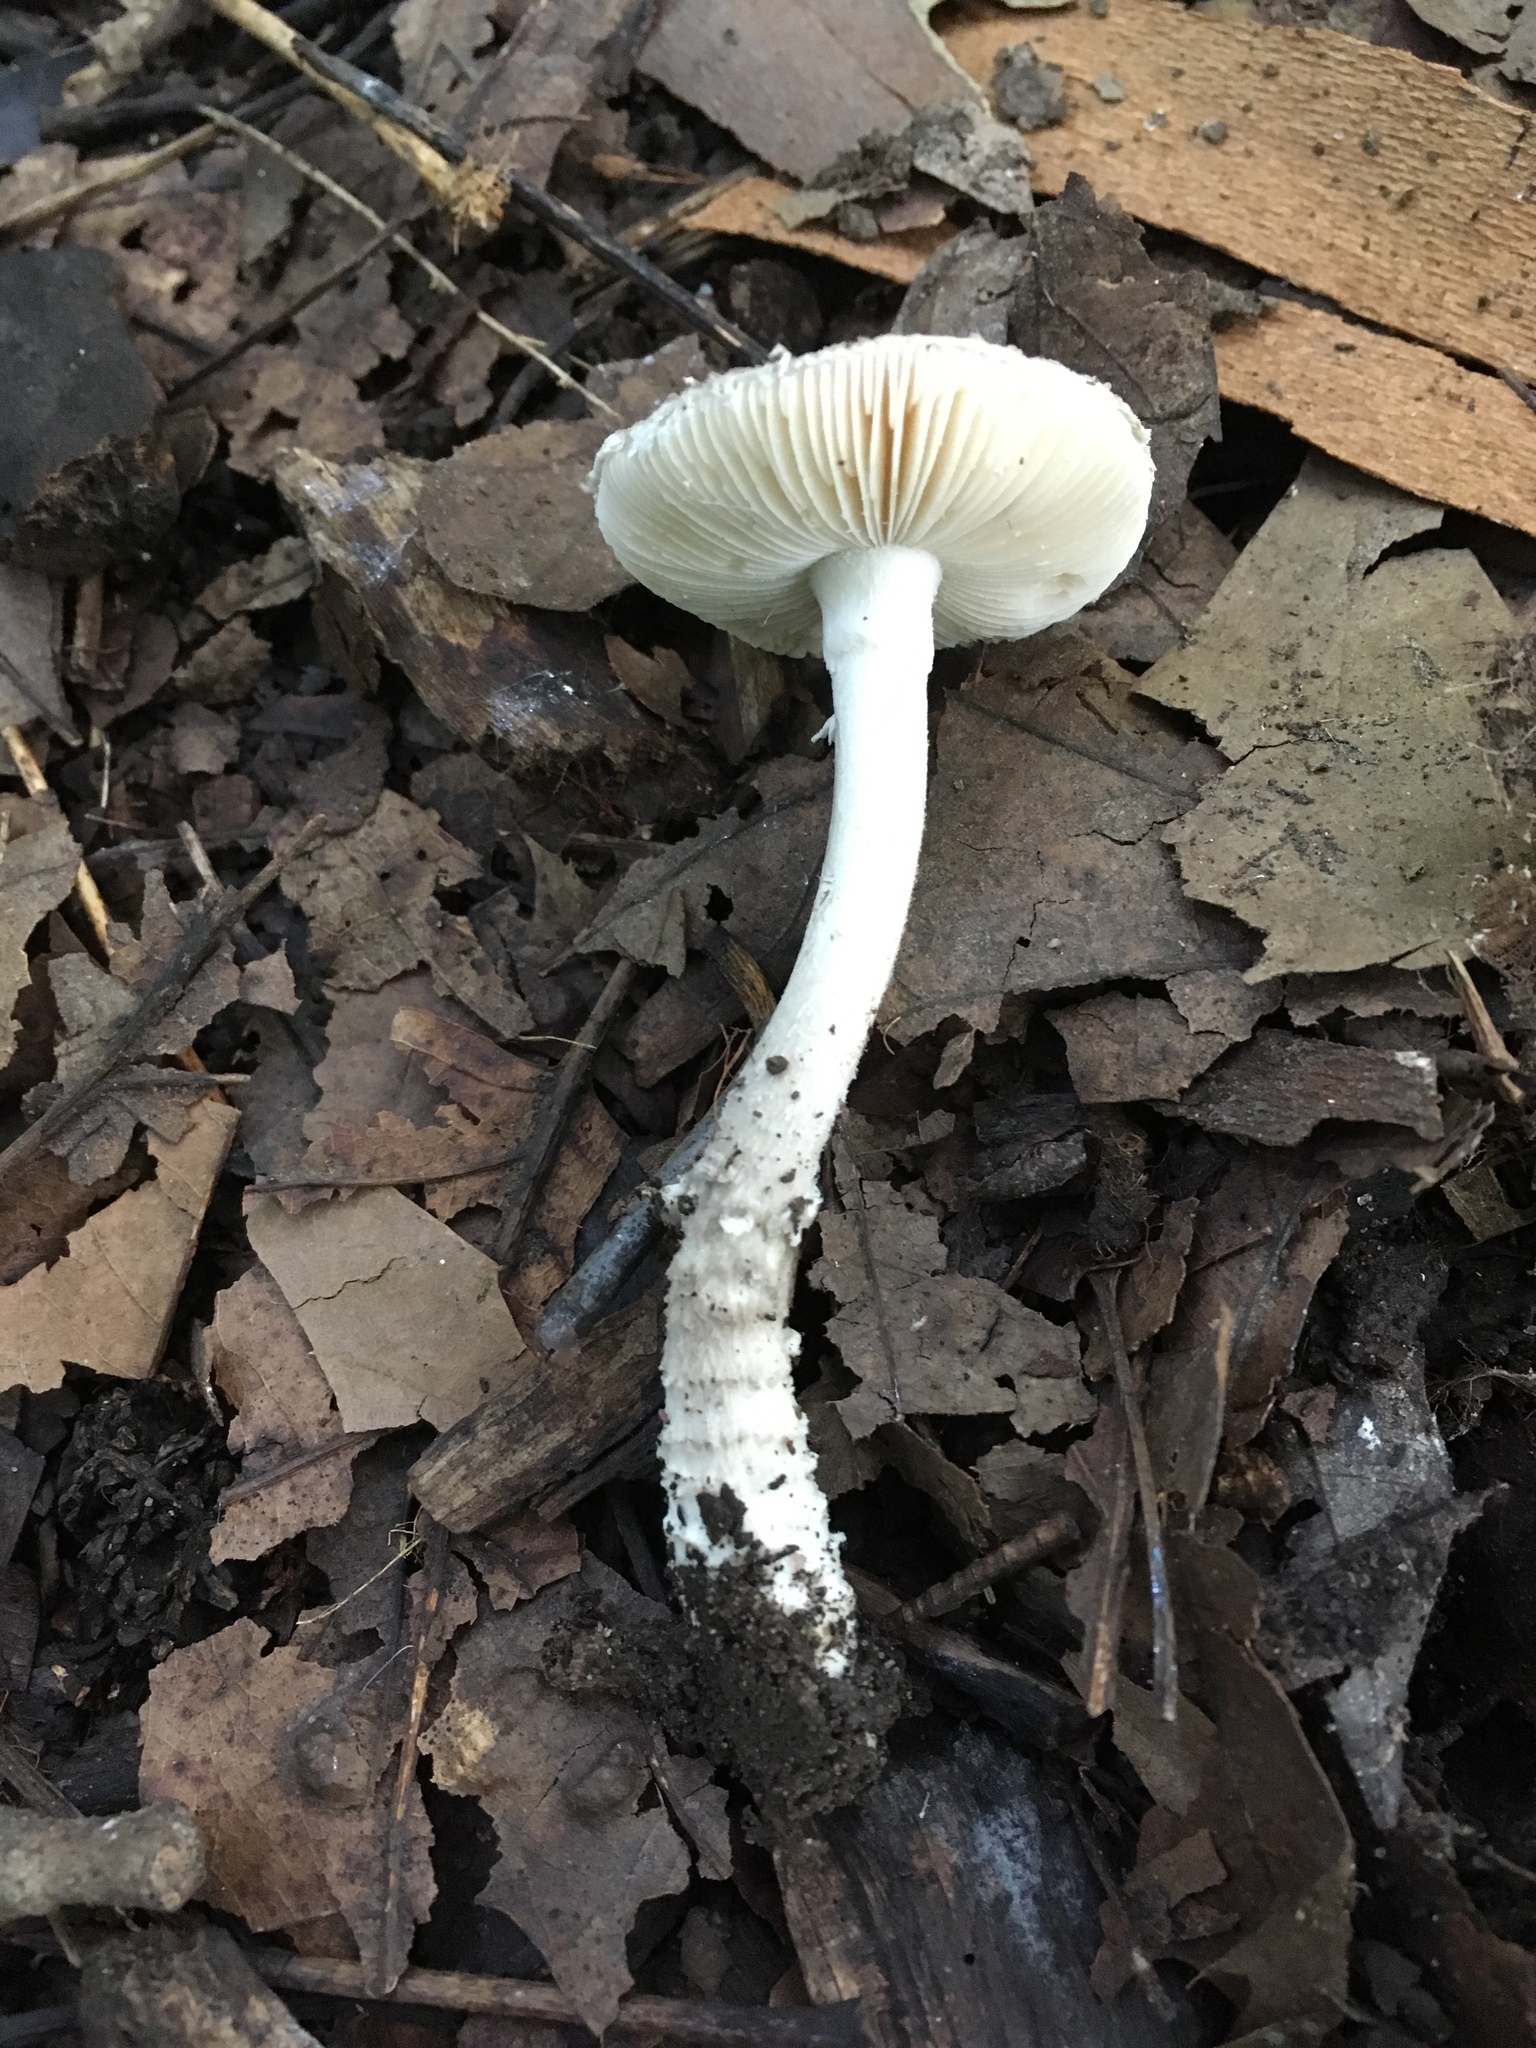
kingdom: Fungi
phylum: Basidiomycota
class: Agaricomycetes
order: Agaricales
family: Amanitaceae
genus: Amanita
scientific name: Amanita onusta
